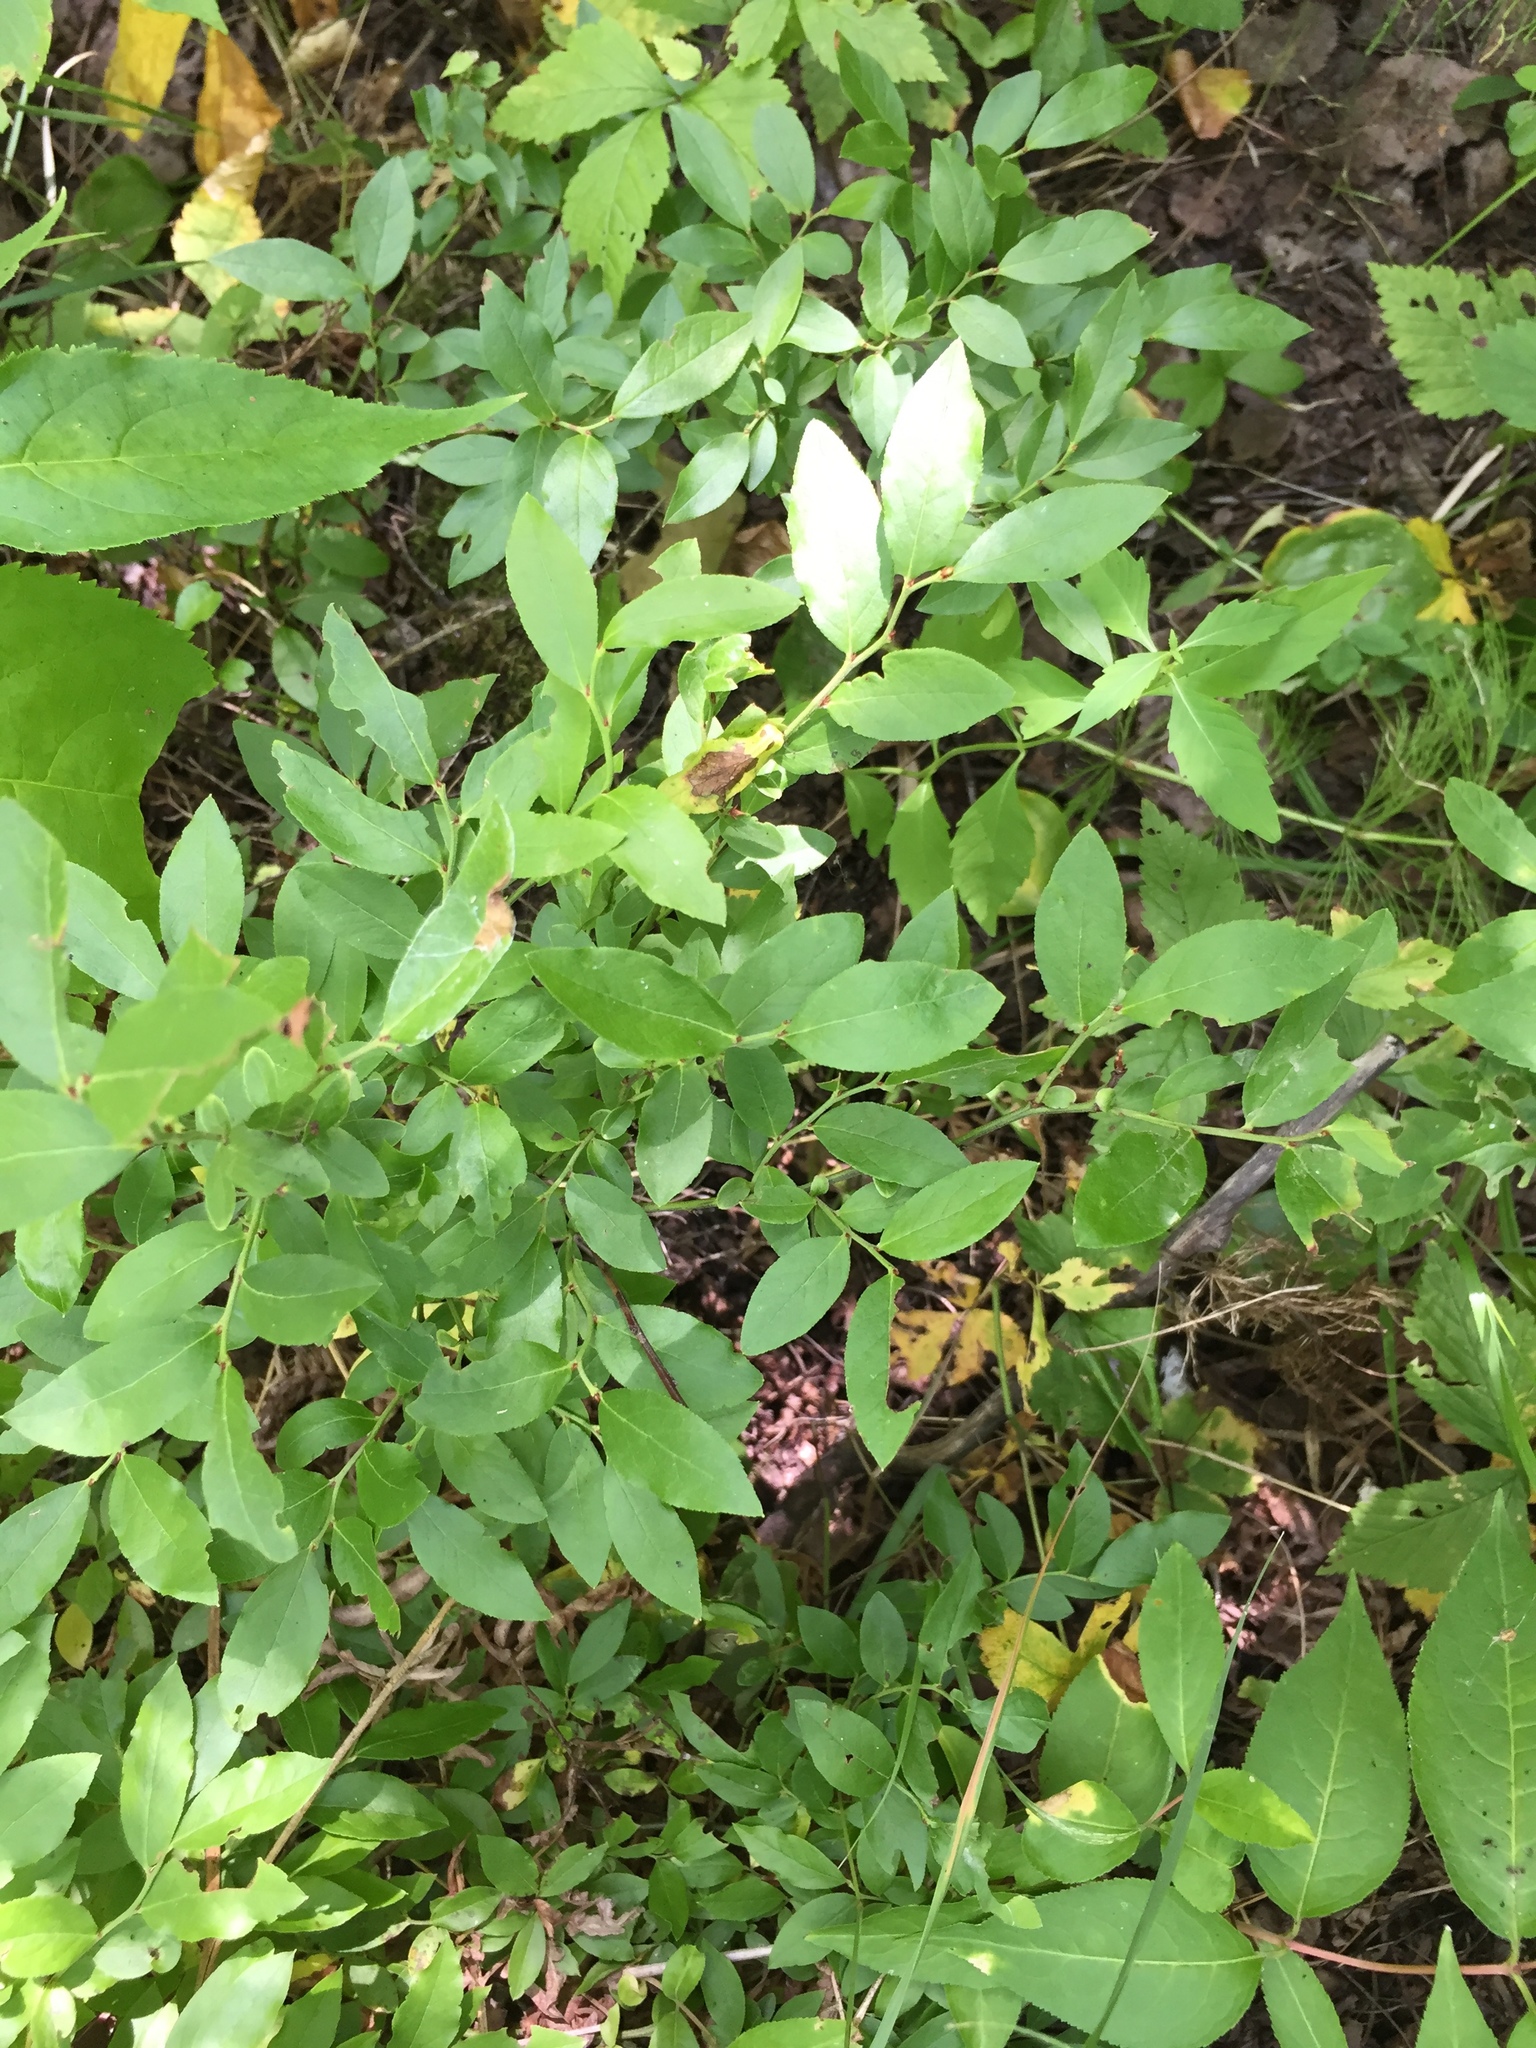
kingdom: Plantae
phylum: Tracheophyta
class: Magnoliopsida
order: Ericales
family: Ericaceae
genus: Vaccinium
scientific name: Vaccinium angustifolium
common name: Early lowbush blueberry
